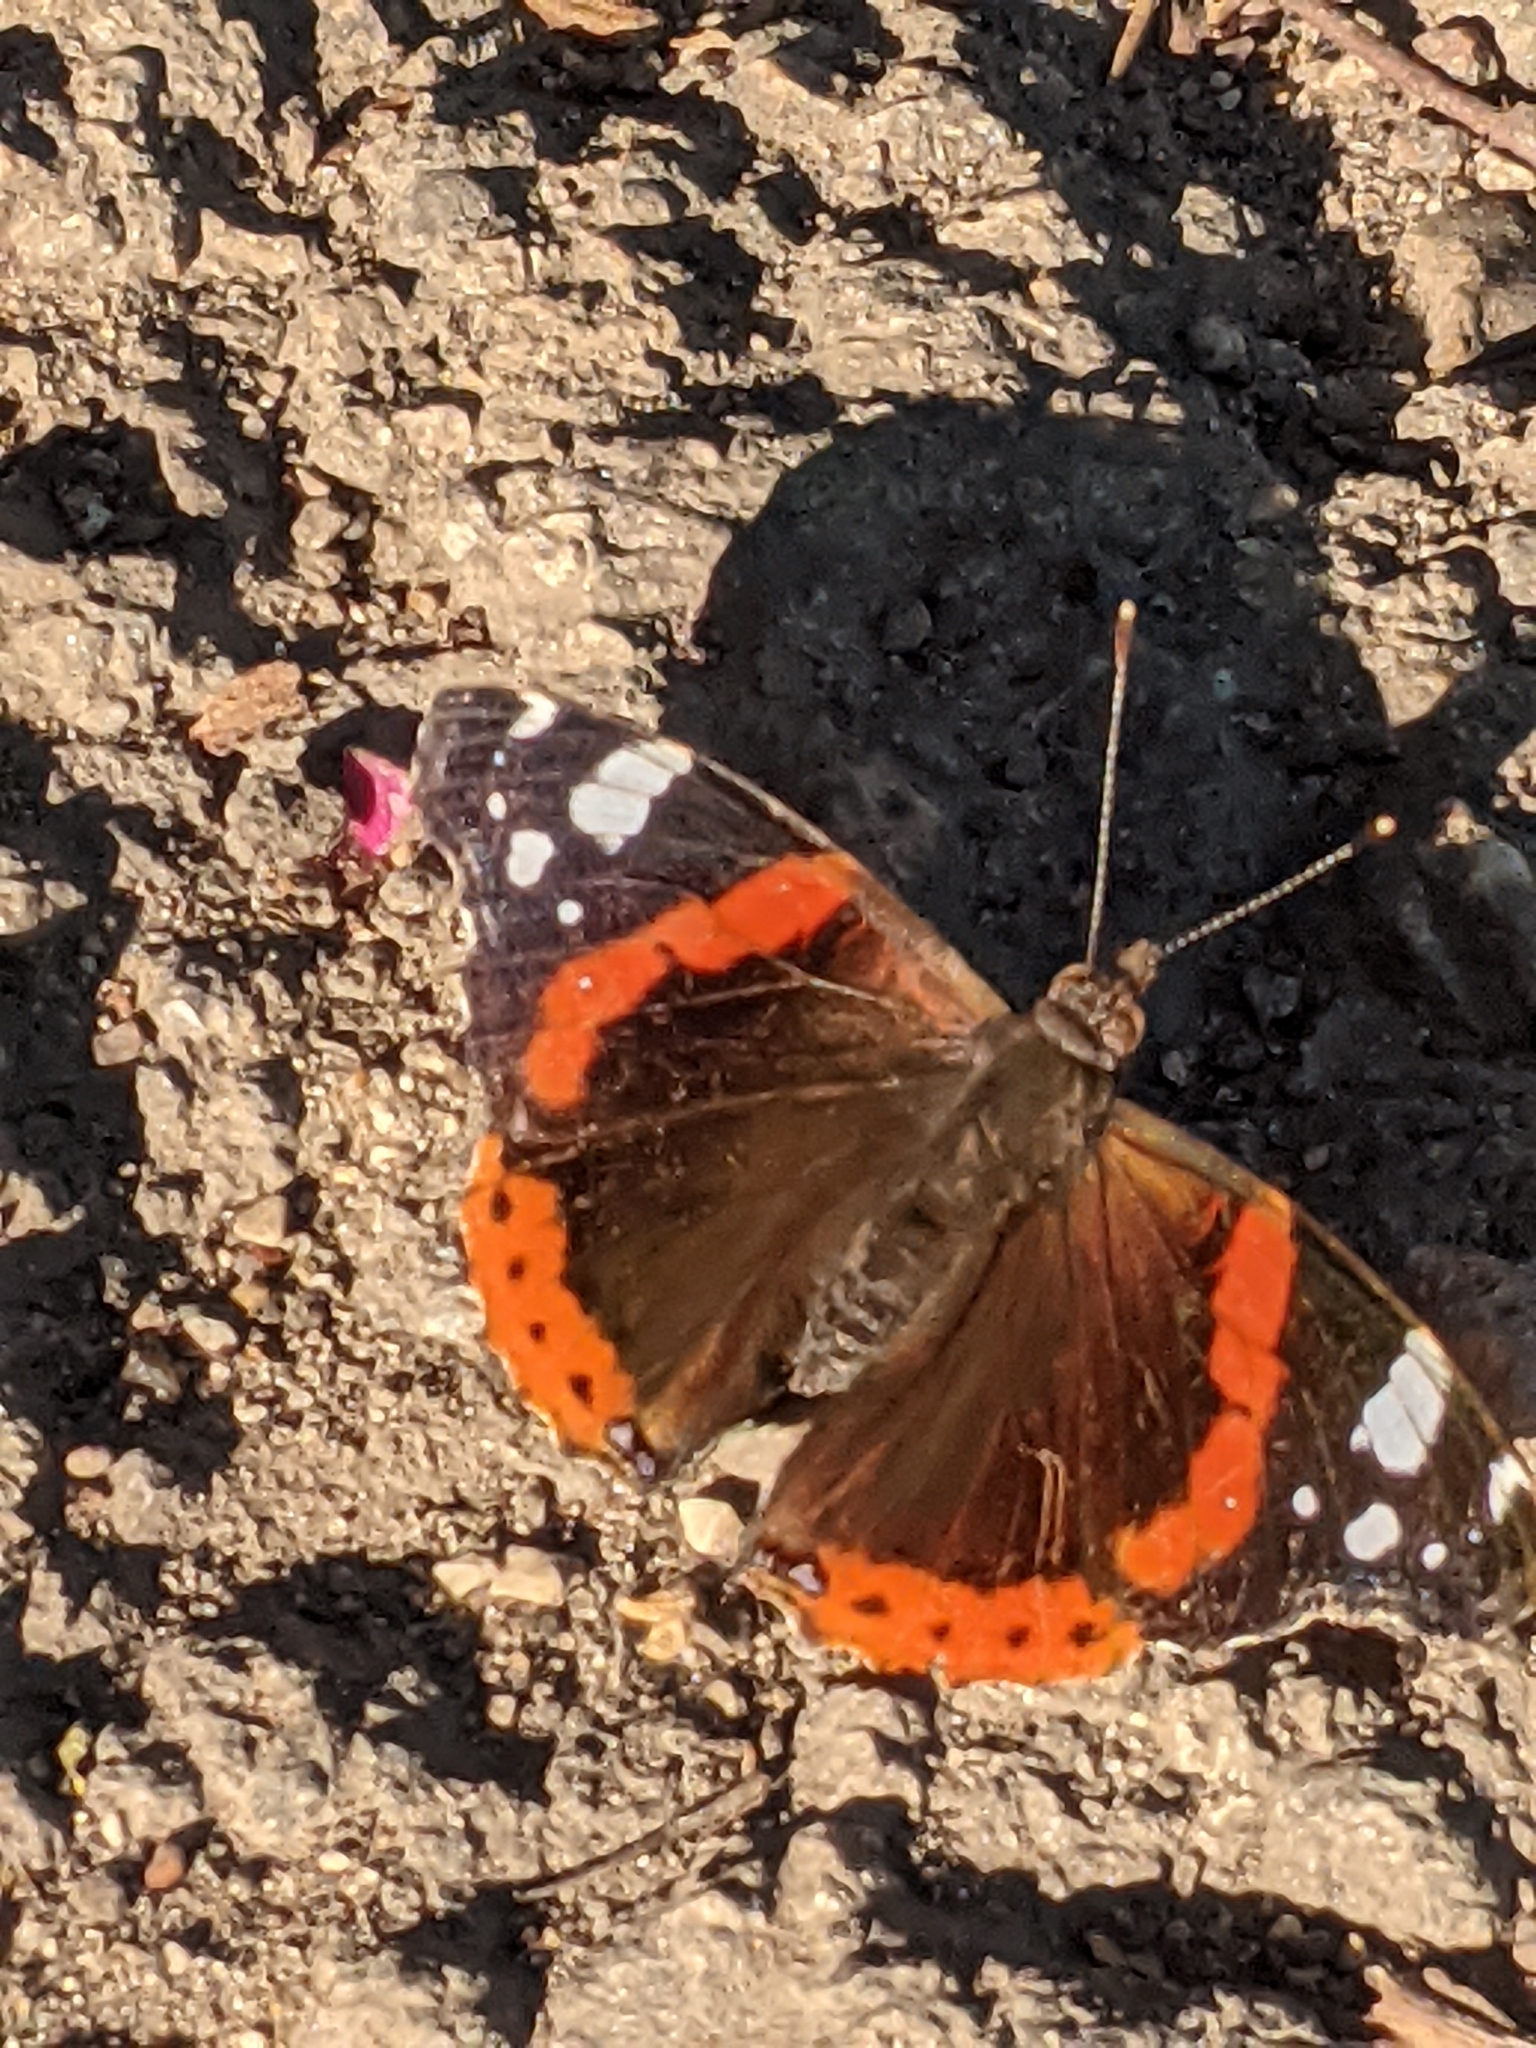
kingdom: Animalia
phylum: Arthropoda
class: Insecta
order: Lepidoptera
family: Nymphalidae
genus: Vanessa
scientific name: Vanessa atalanta
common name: Red admiral
